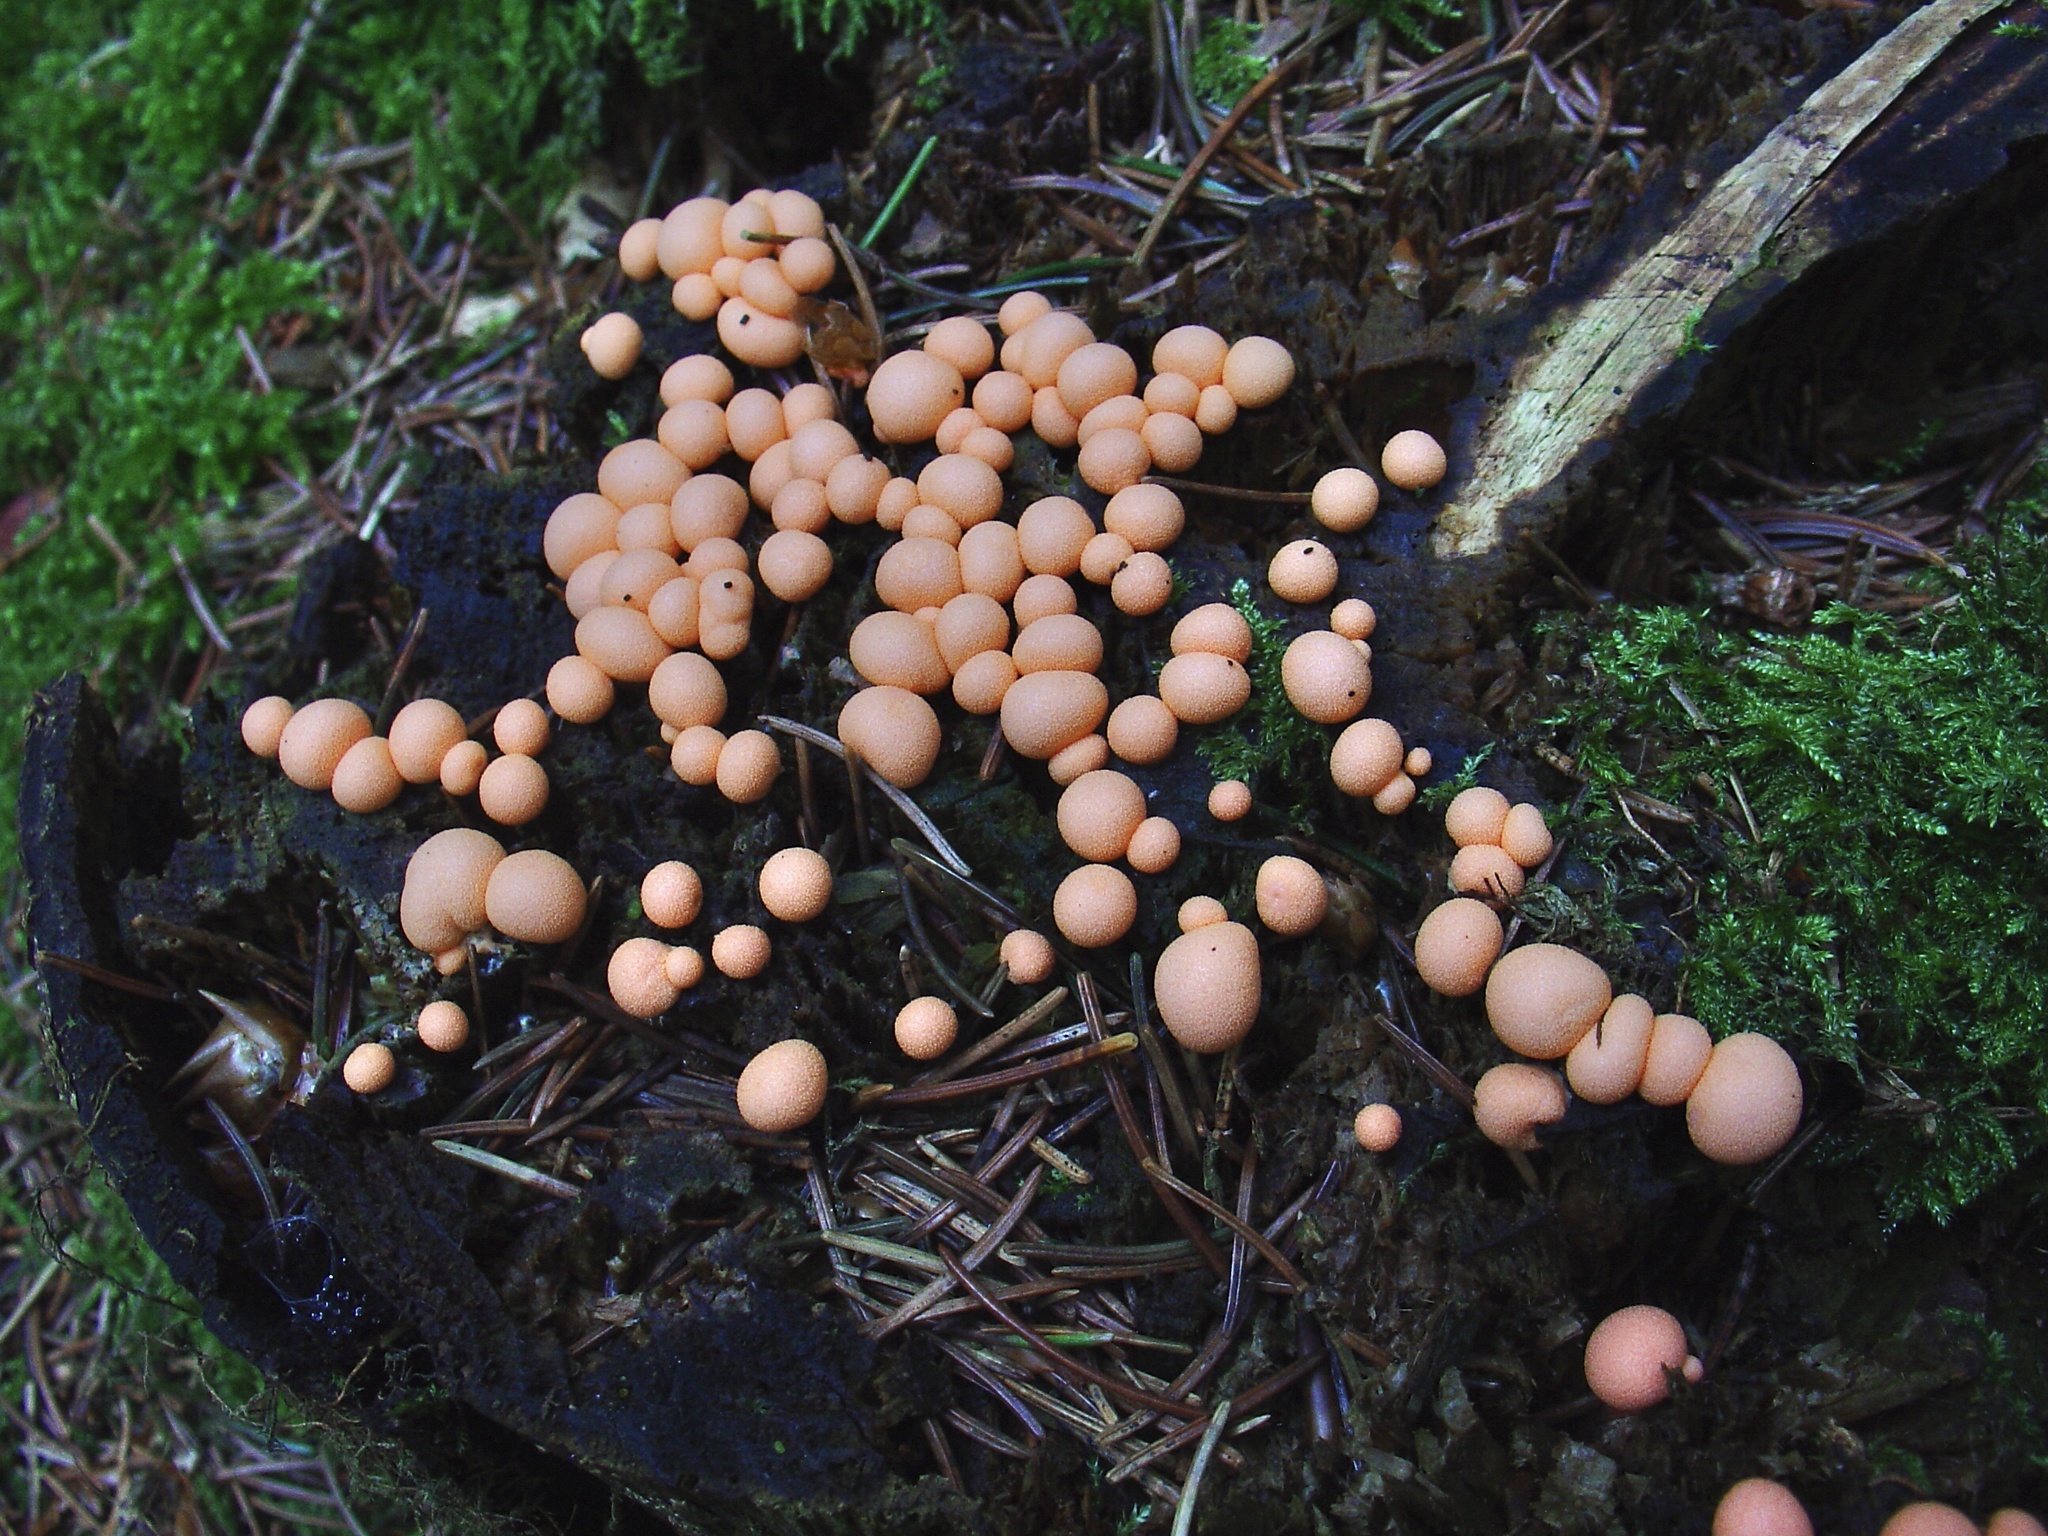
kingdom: Protozoa
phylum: Mycetozoa
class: Myxomycetes
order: Cribrariales
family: Tubiferaceae
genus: Lycogala
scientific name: Lycogala epidendrum
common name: Wolf's milk
